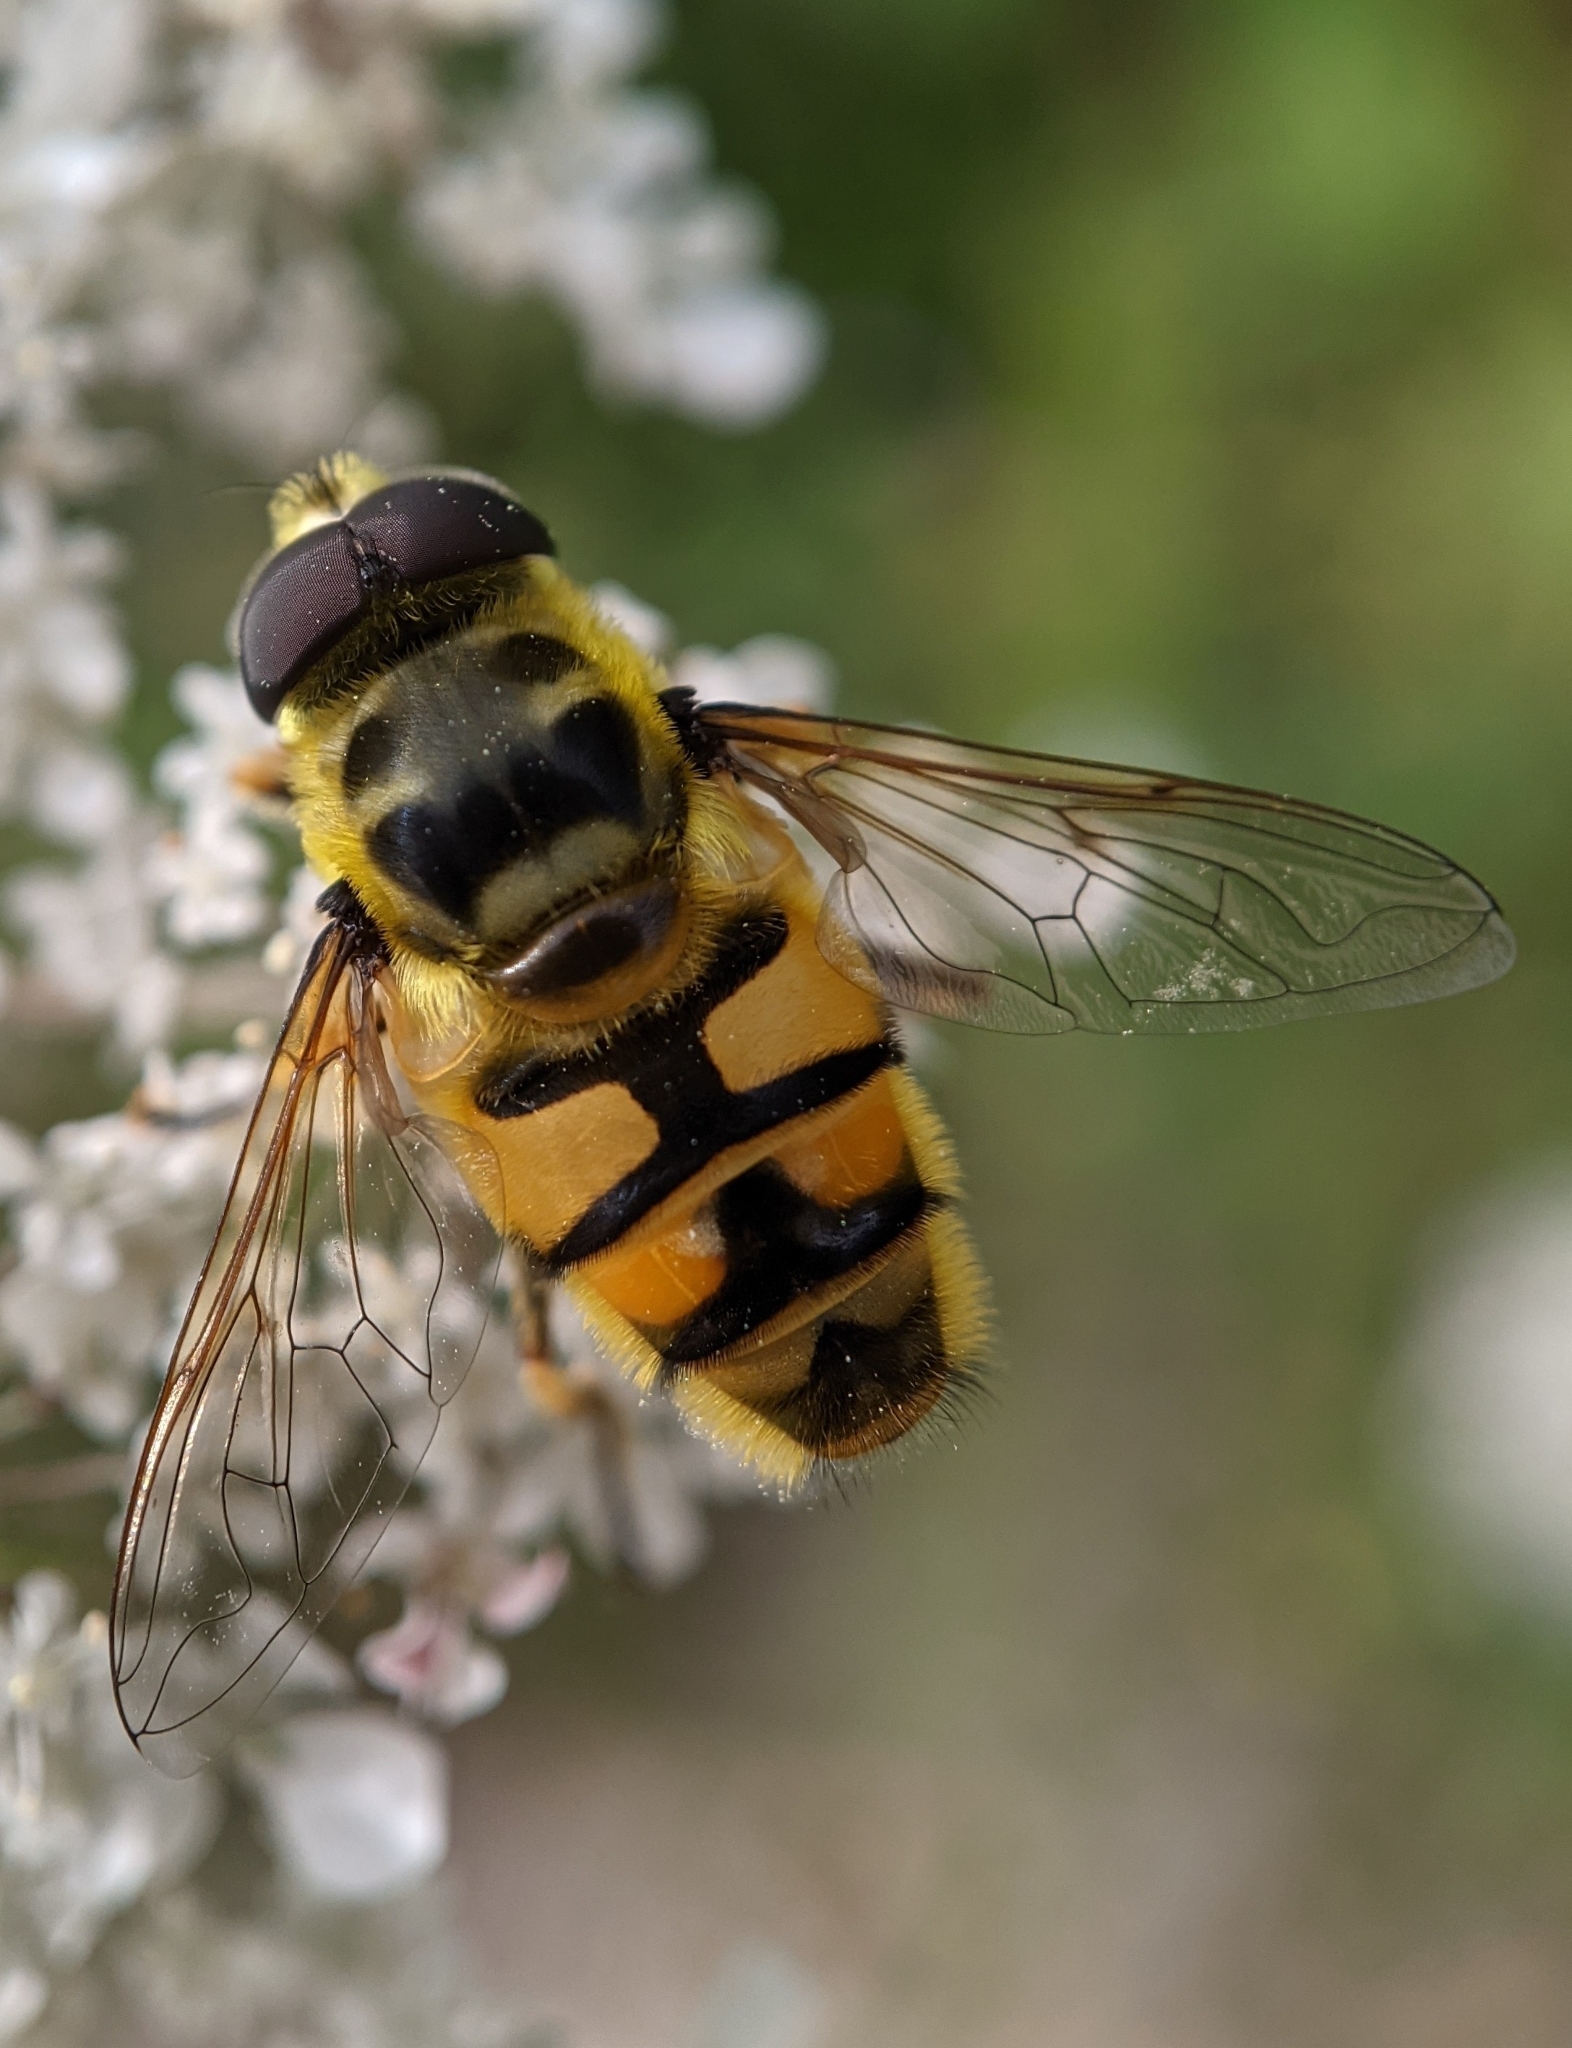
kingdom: Animalia
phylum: Arthropoda
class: Insecta
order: Diptera
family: Syrphidae
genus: Myathropa
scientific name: Myathropa florea
